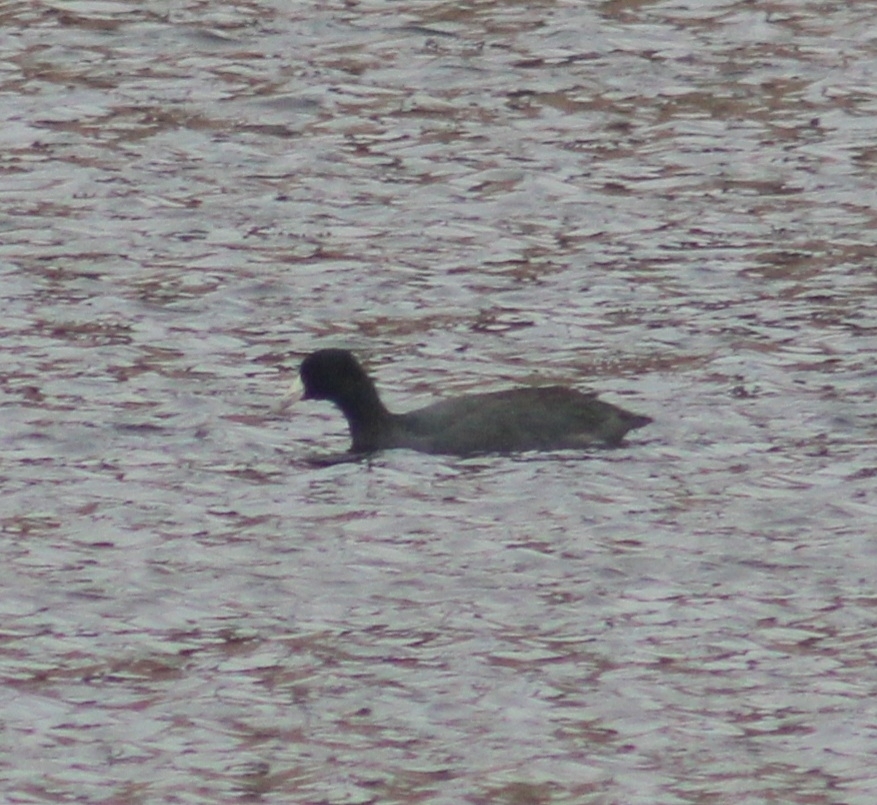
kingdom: Animalia
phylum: Chordata
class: Aves
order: Gruiformes
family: Rallidae
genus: Fulica
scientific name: Fulica americana
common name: American coot
